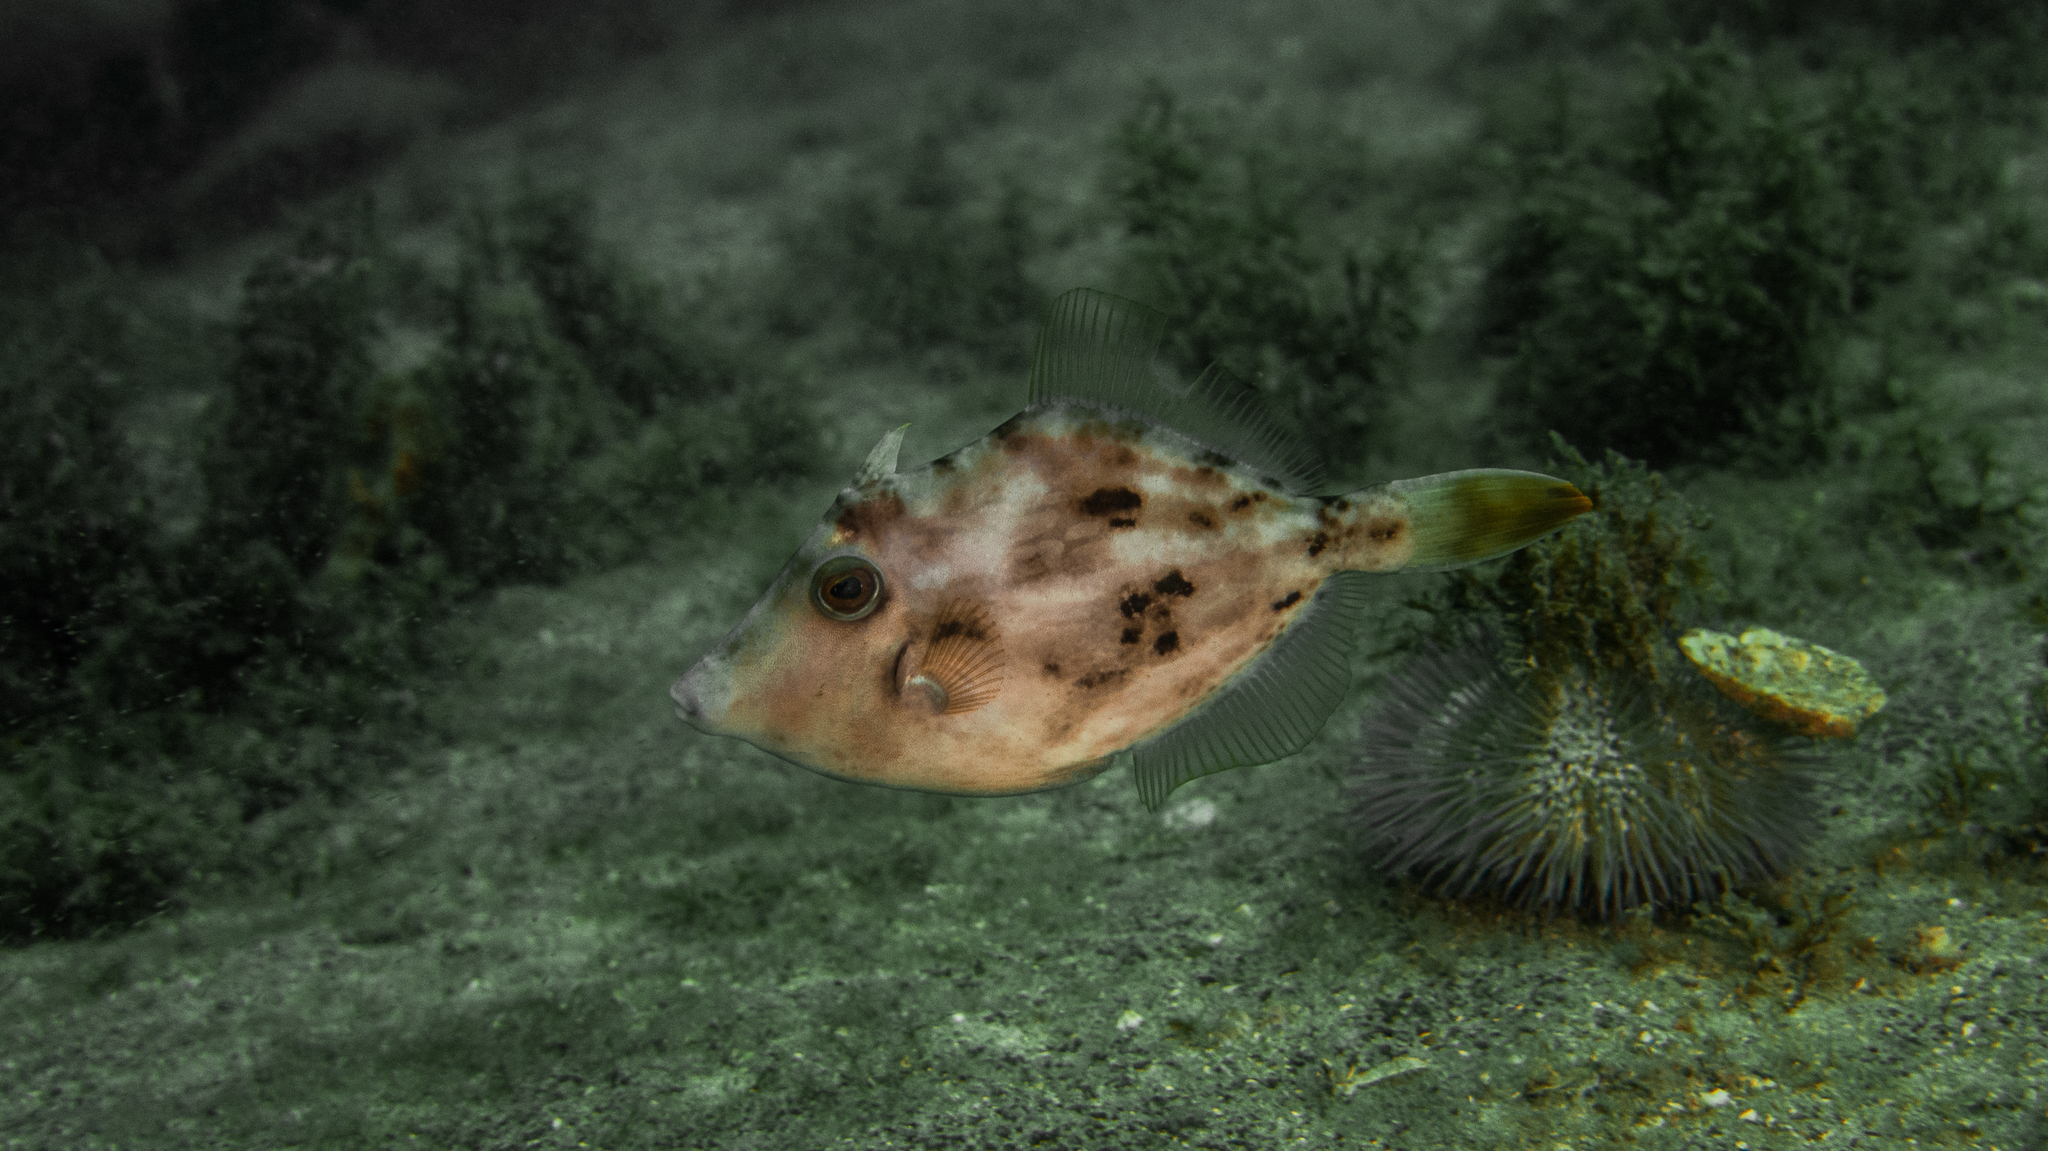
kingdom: Animalia
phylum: Chordata
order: Tetraodontiformes
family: Monacanthidae
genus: Stephanolepis
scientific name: Stephanolepis hispidus
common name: Planehead filefish
